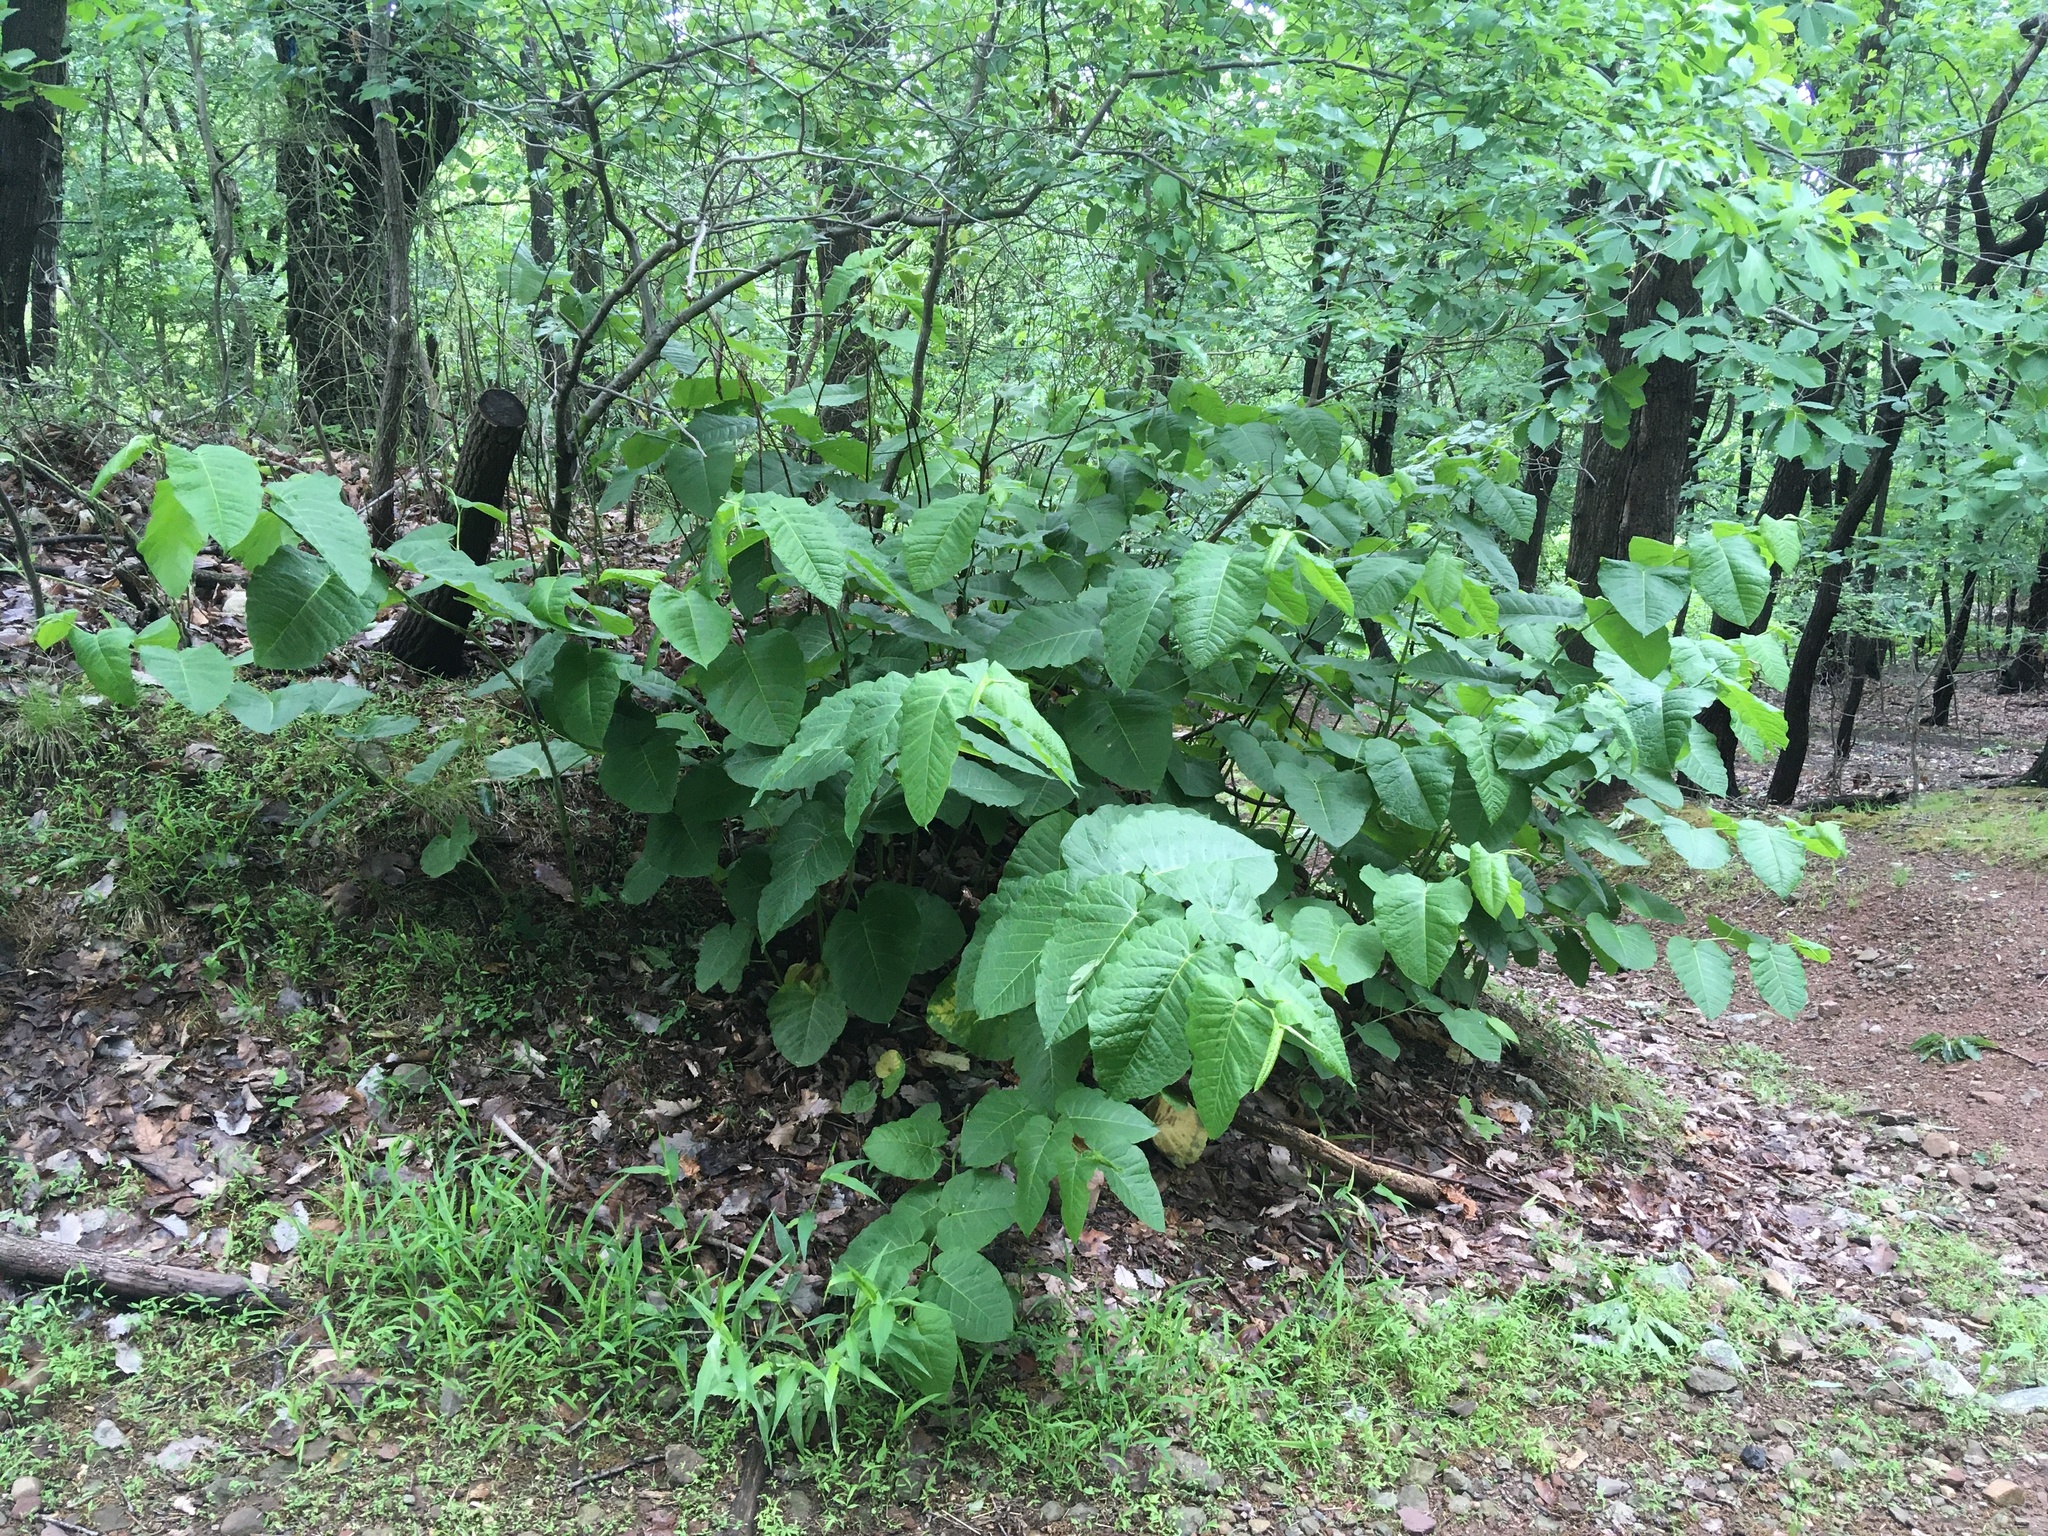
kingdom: Plantae
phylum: Tracheophyta
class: Magnoliopsida
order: Caryophyllales
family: Polygonaceae
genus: Reynoutria
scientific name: Reynoutria sachalinensis
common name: Giant knotweed
